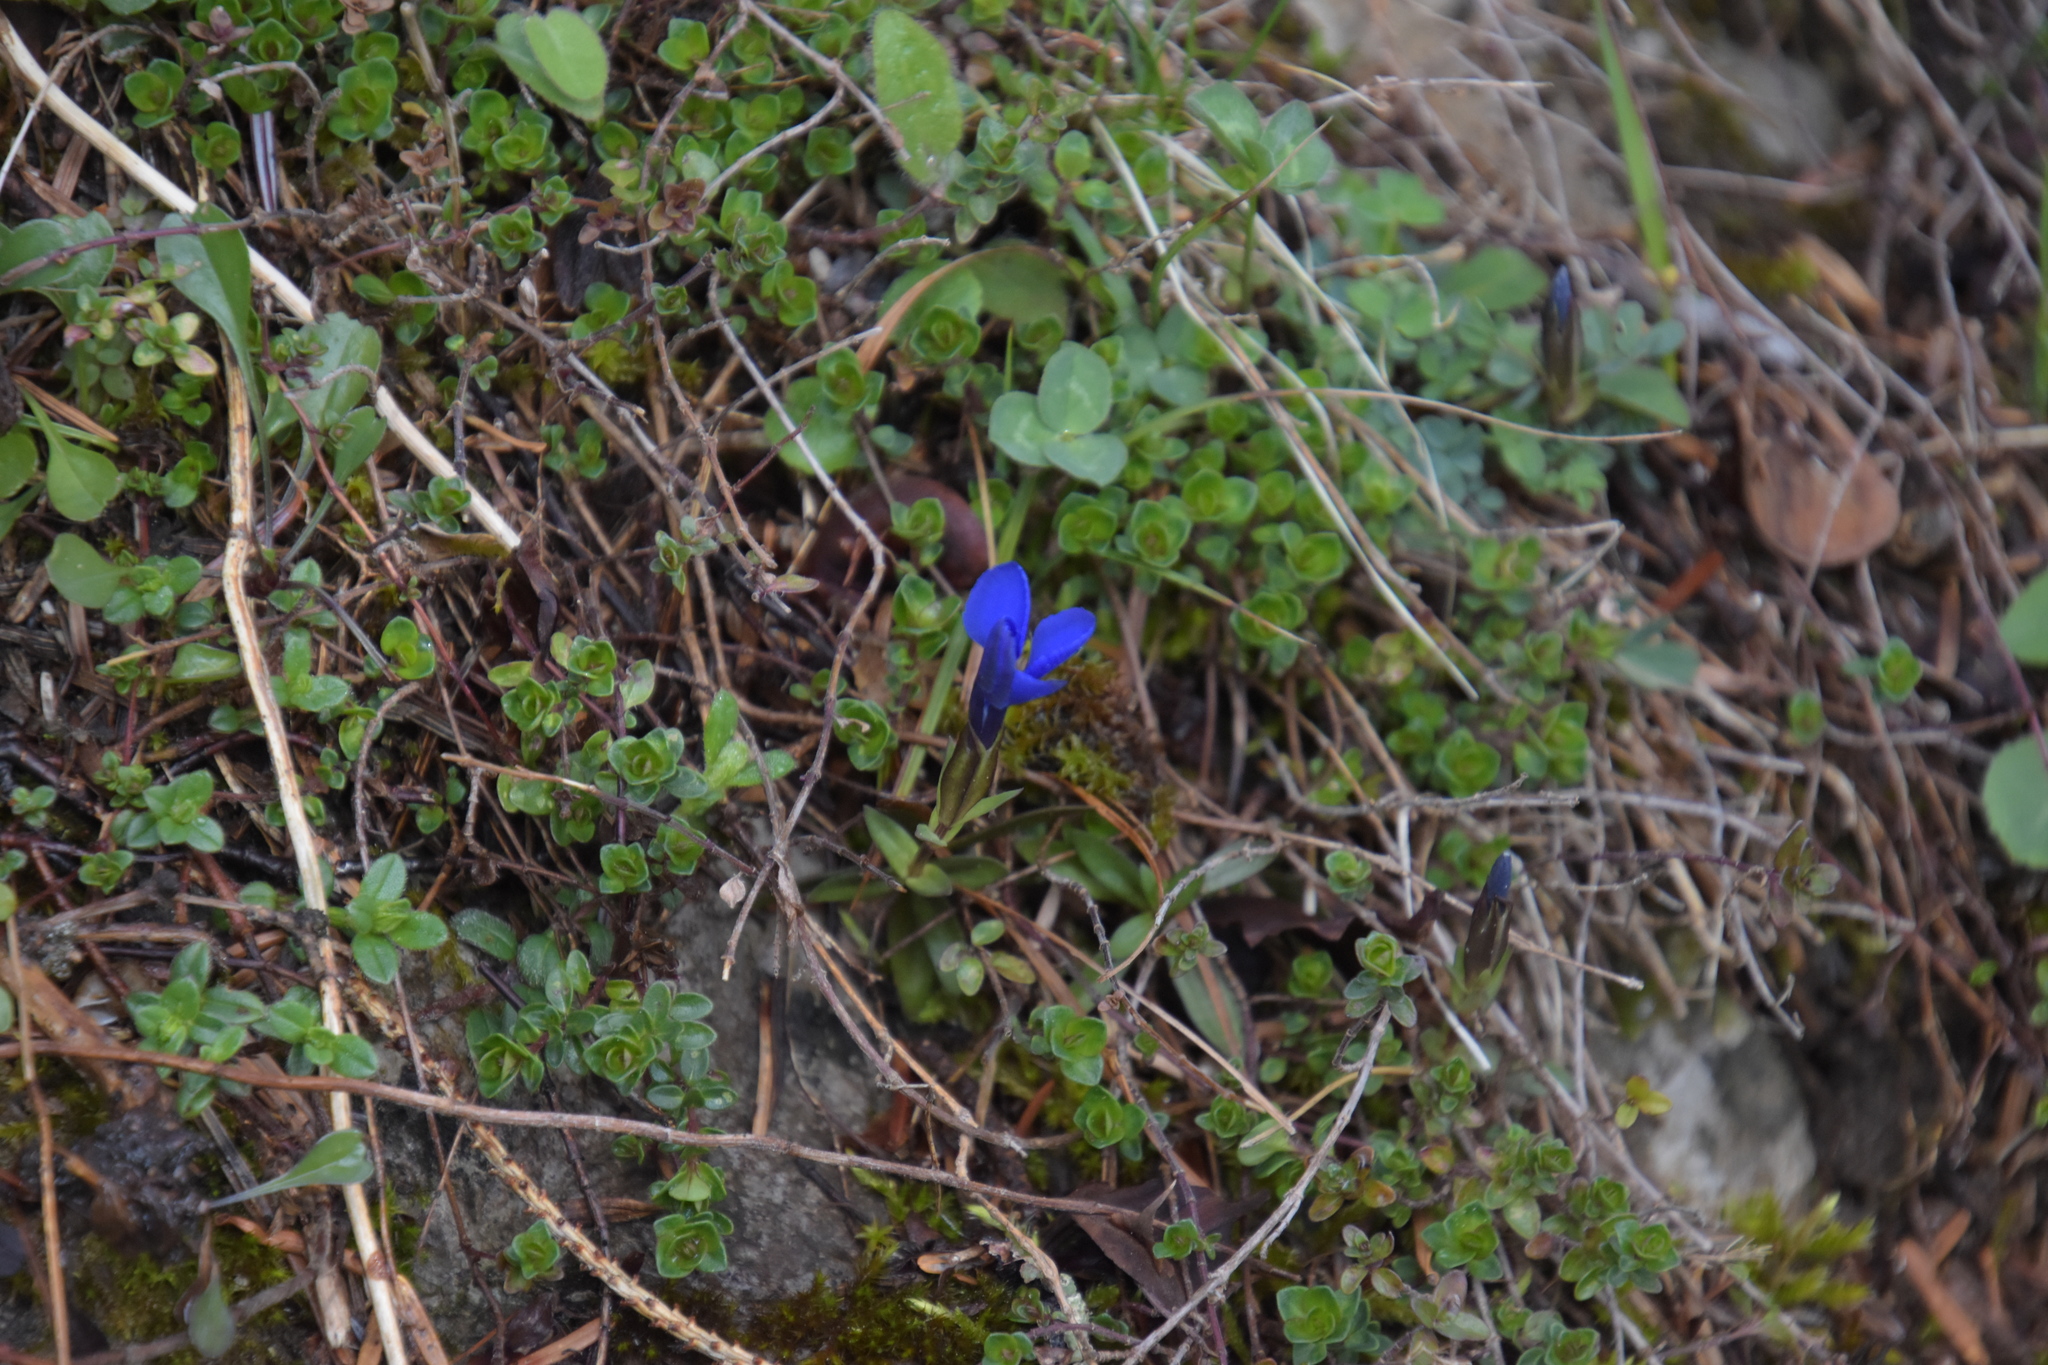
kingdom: Plantae
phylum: Tracheophyta
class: Magnoliopsida
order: Gentianales
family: Gentianaceae
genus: Gentiana
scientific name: Gentiana verna
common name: Spring gentian
